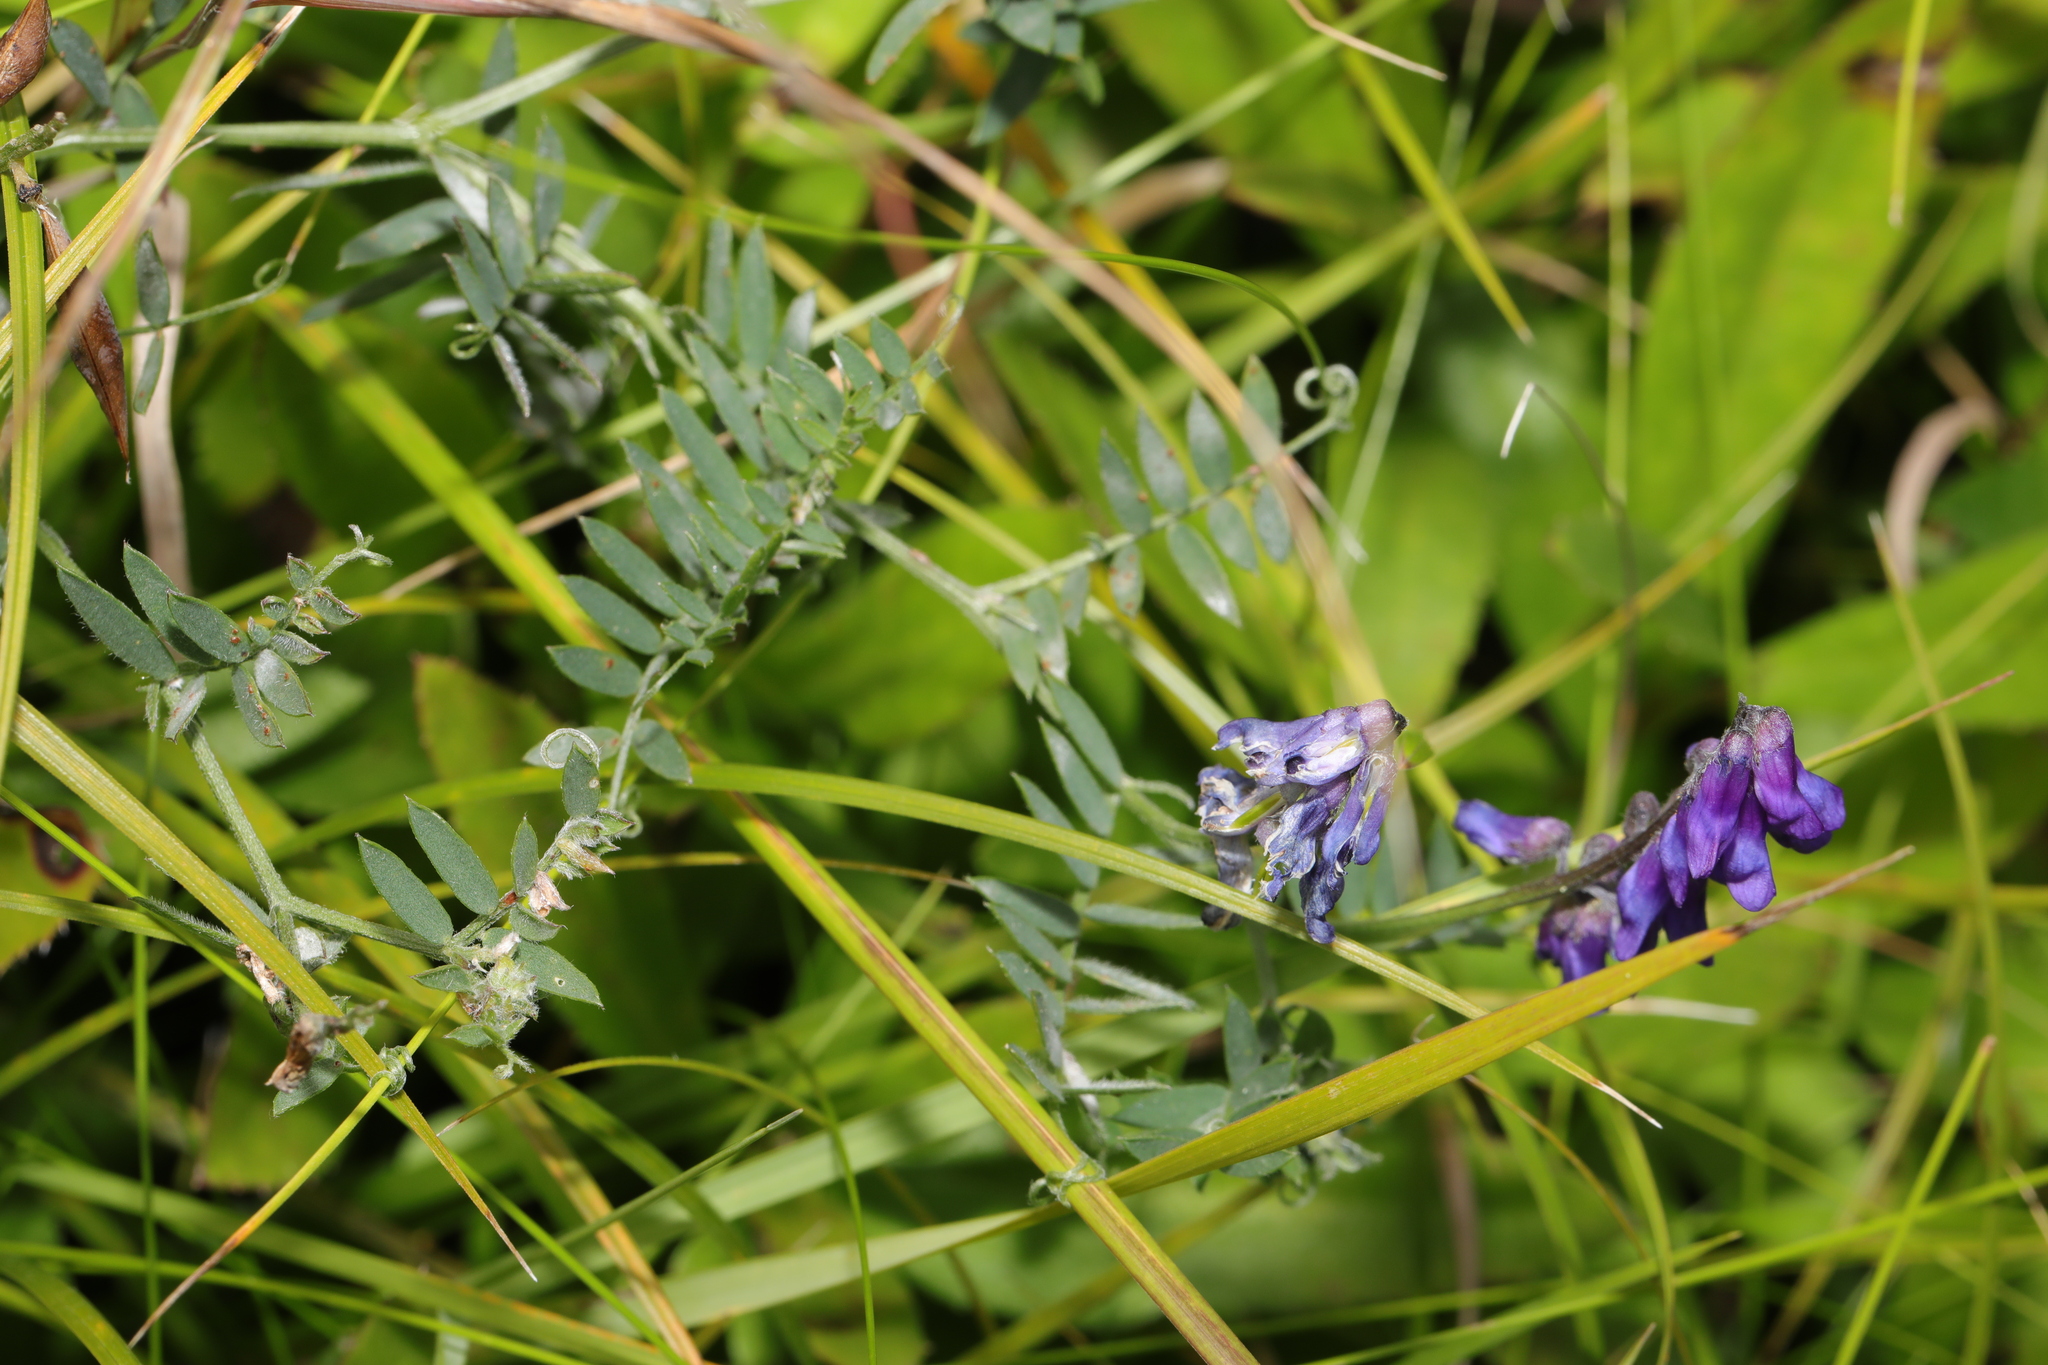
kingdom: Plantae
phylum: Tracheophyta
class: Magnoliopsida
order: Fabales
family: Fabaceae
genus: Vicia
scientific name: Vicia cracca
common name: Bird vetch
